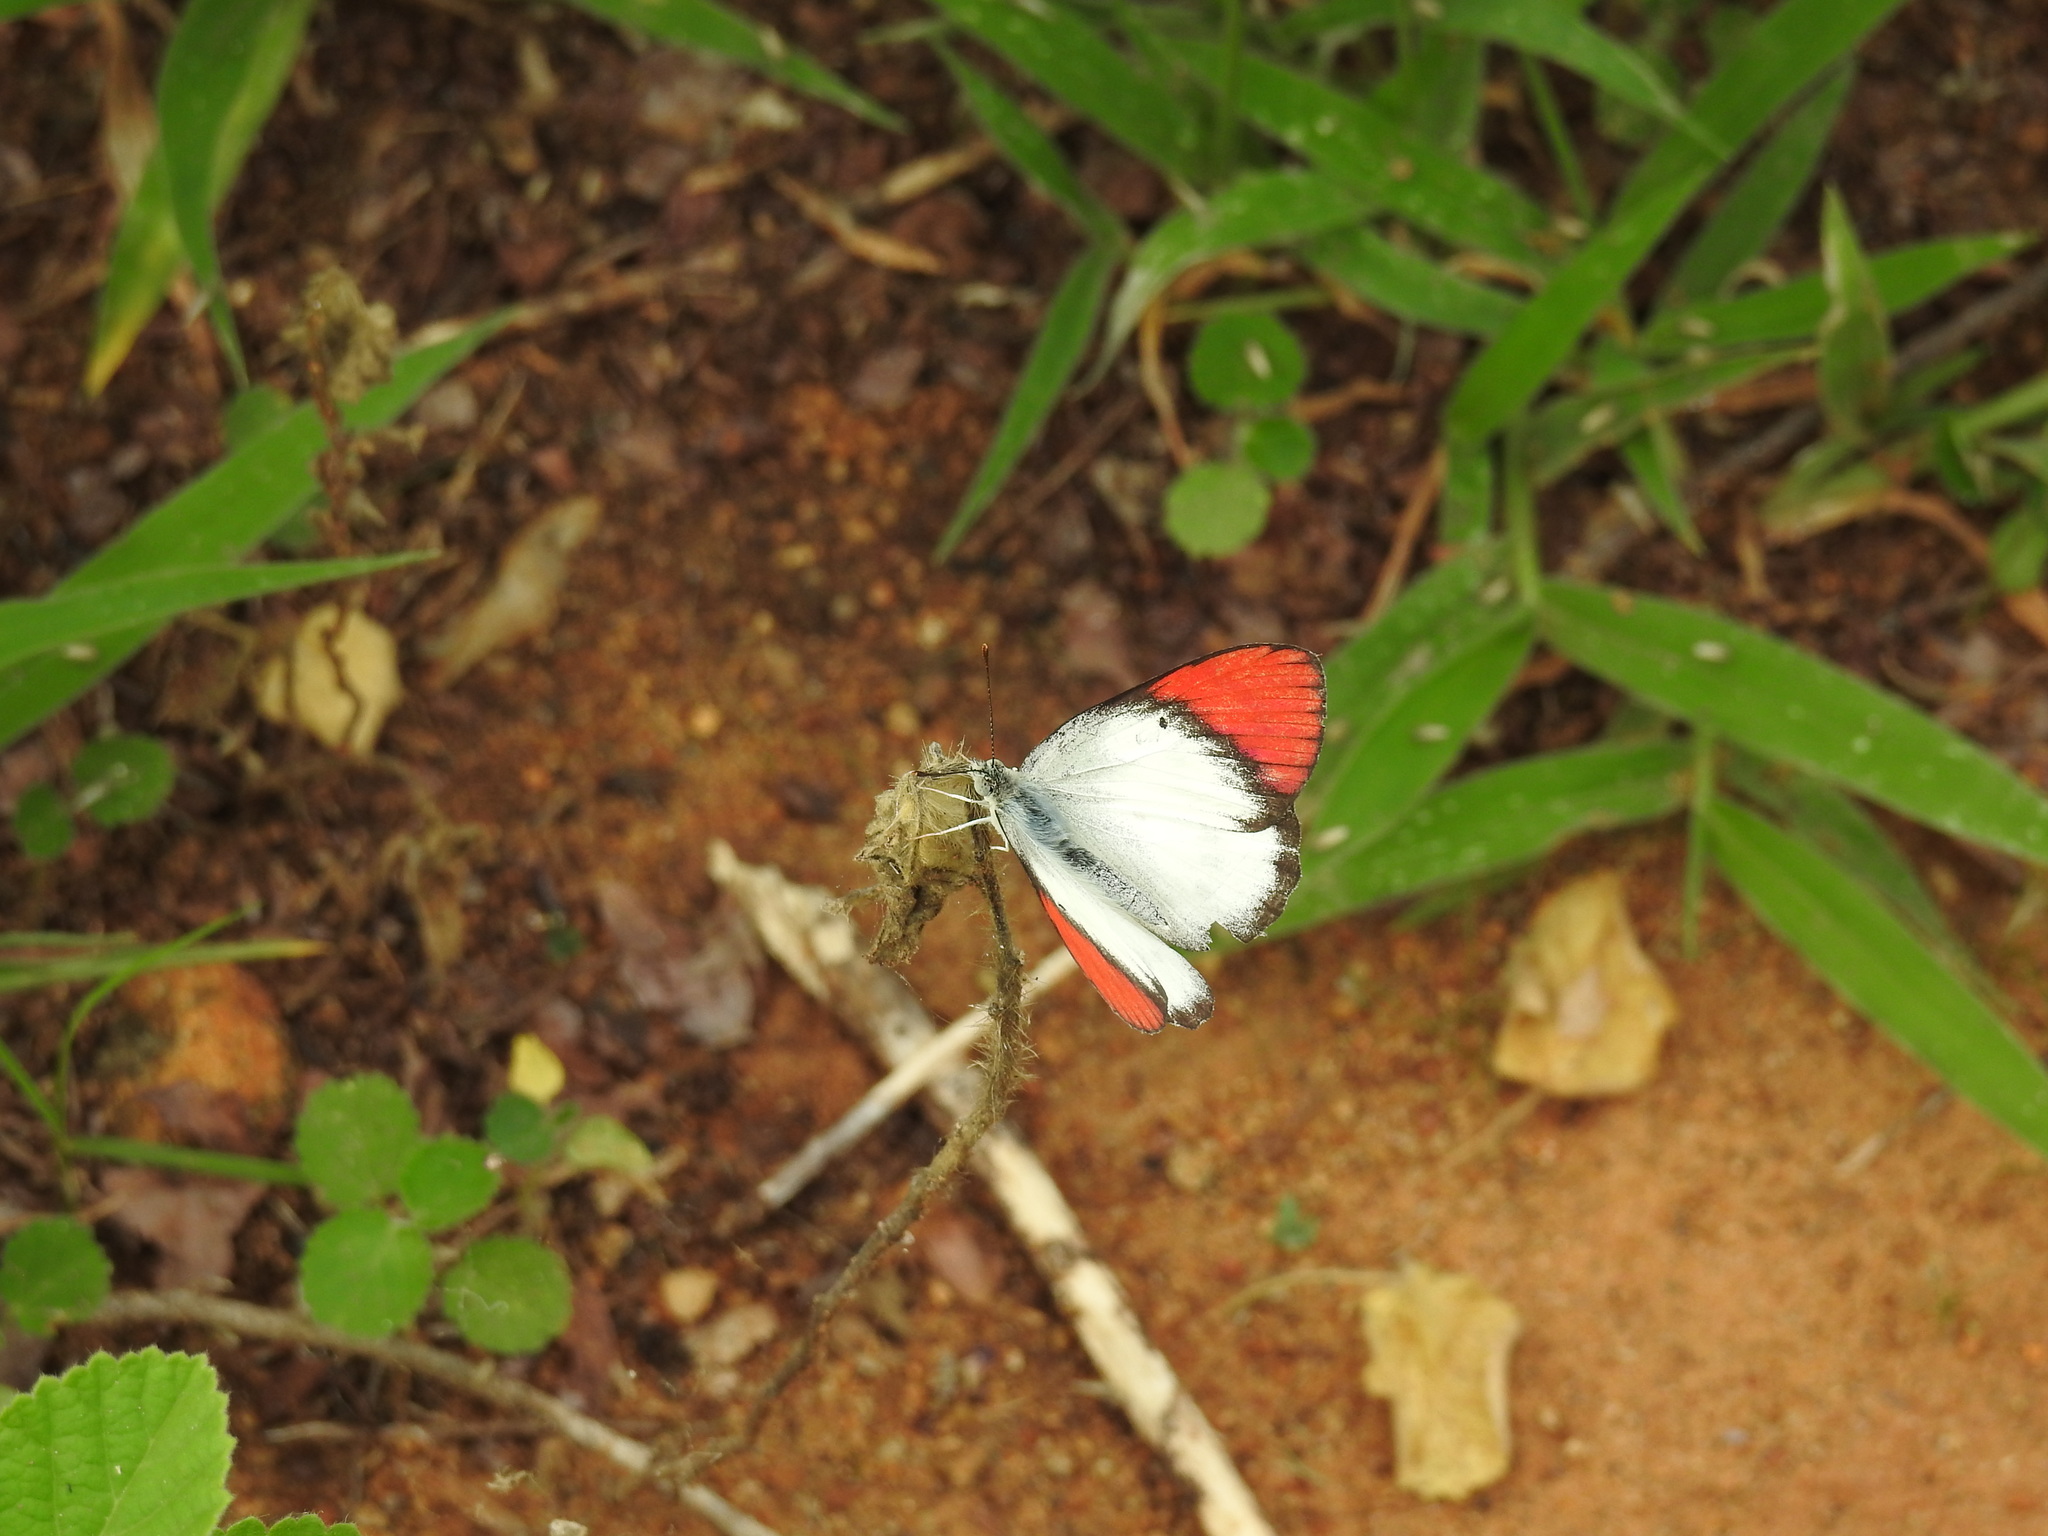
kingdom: Animalia
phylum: Arthropoda
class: Insecta
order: Lepidoptera
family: Pieridae
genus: Colotis
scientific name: Colotis danae
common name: Crimson tip
